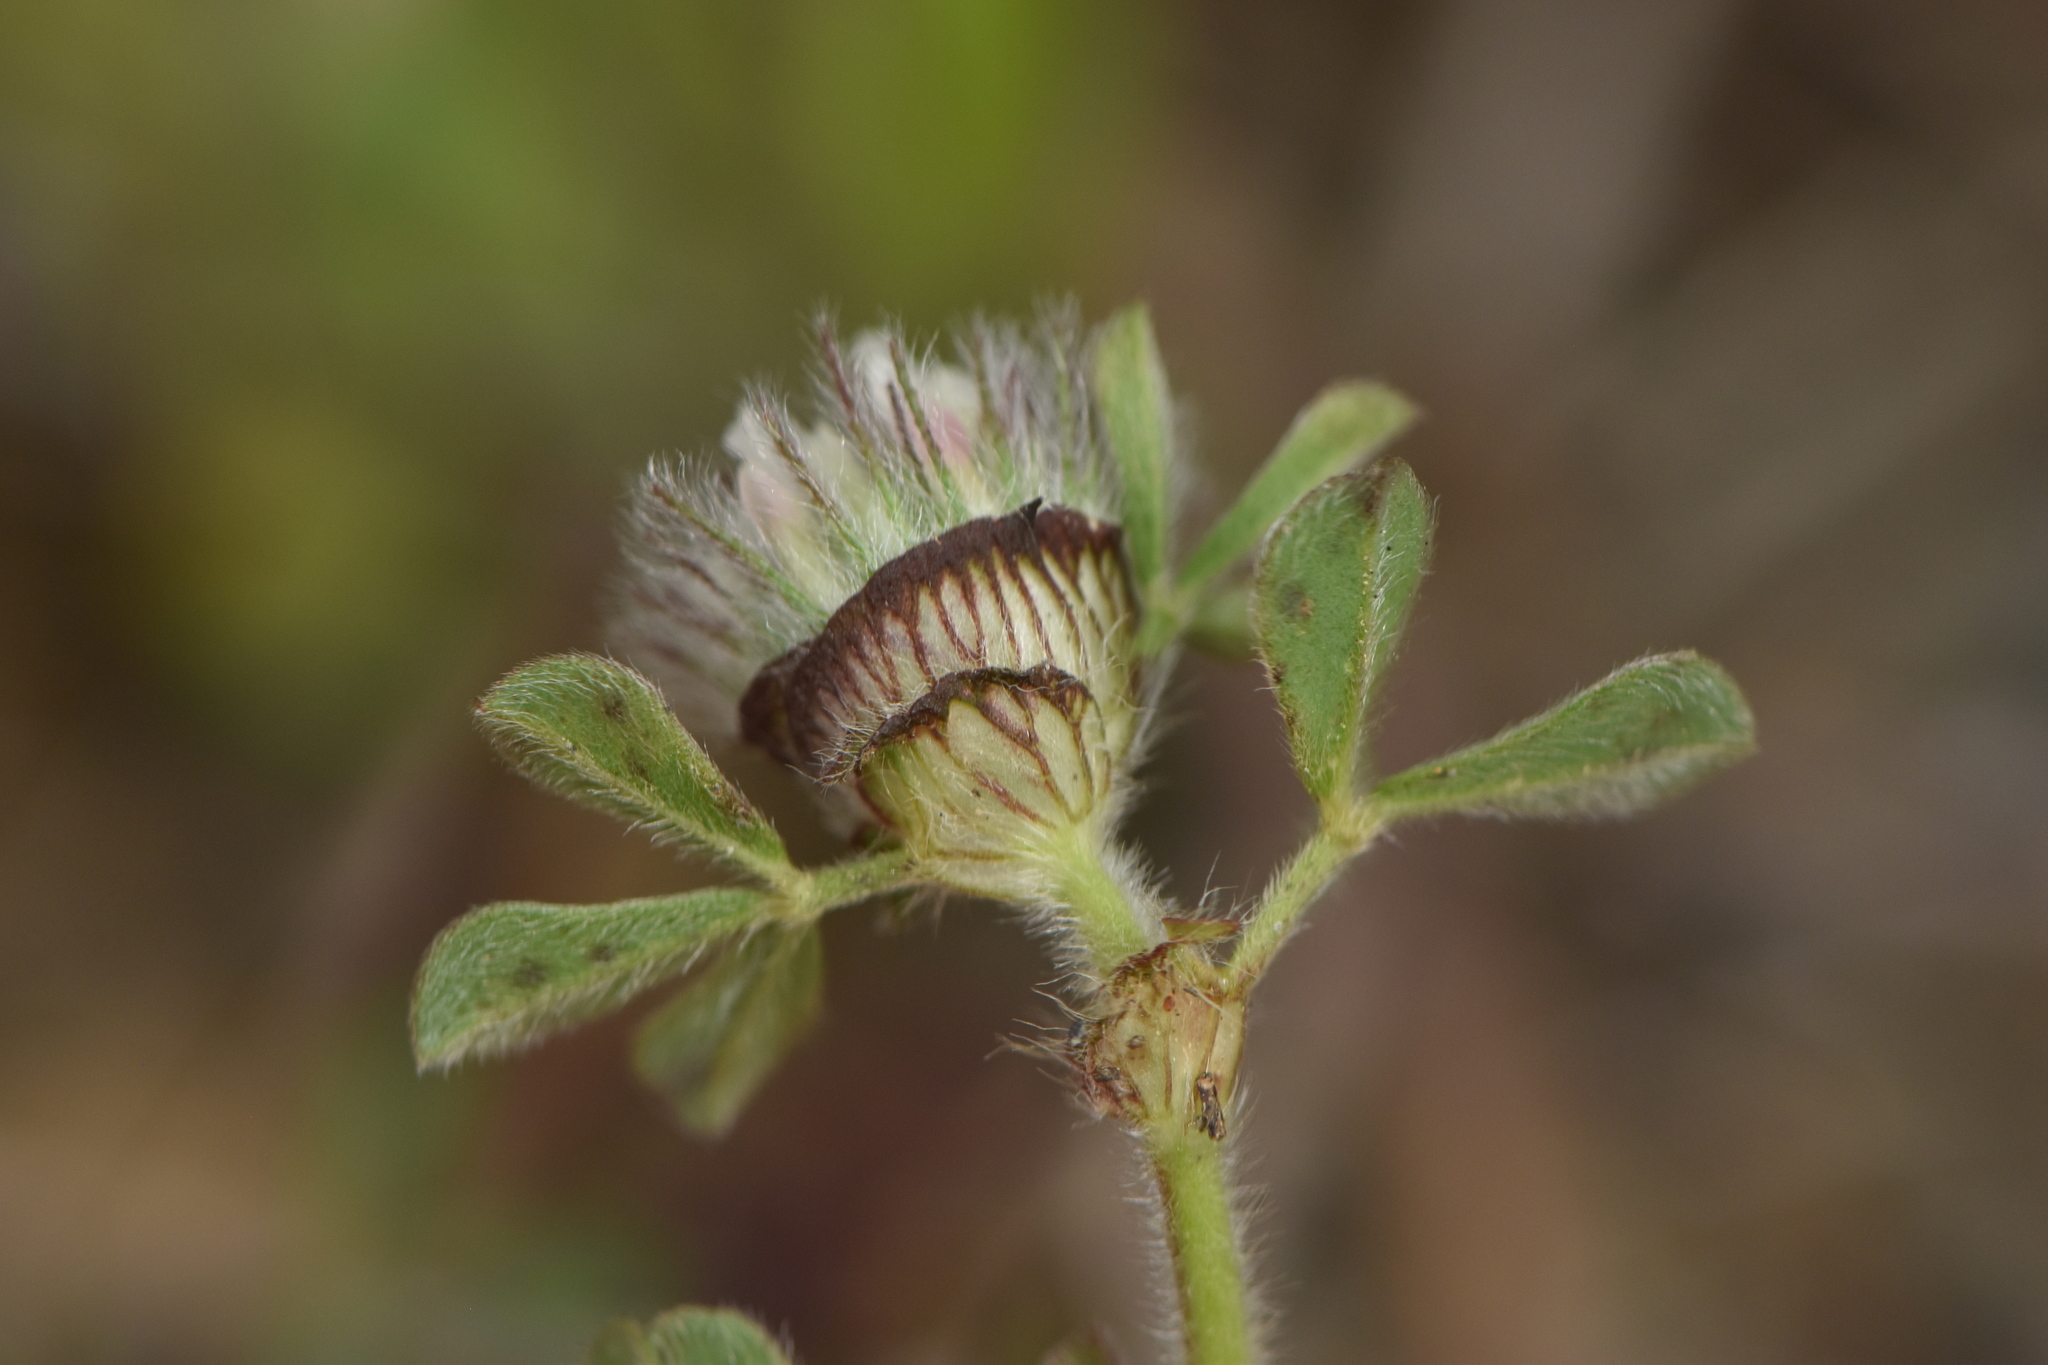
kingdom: Plantae
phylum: Tracheophyta
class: Magnoliopsida
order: Fabales
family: Fabaceae
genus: Trifolium
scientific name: Trifolium cherleri
